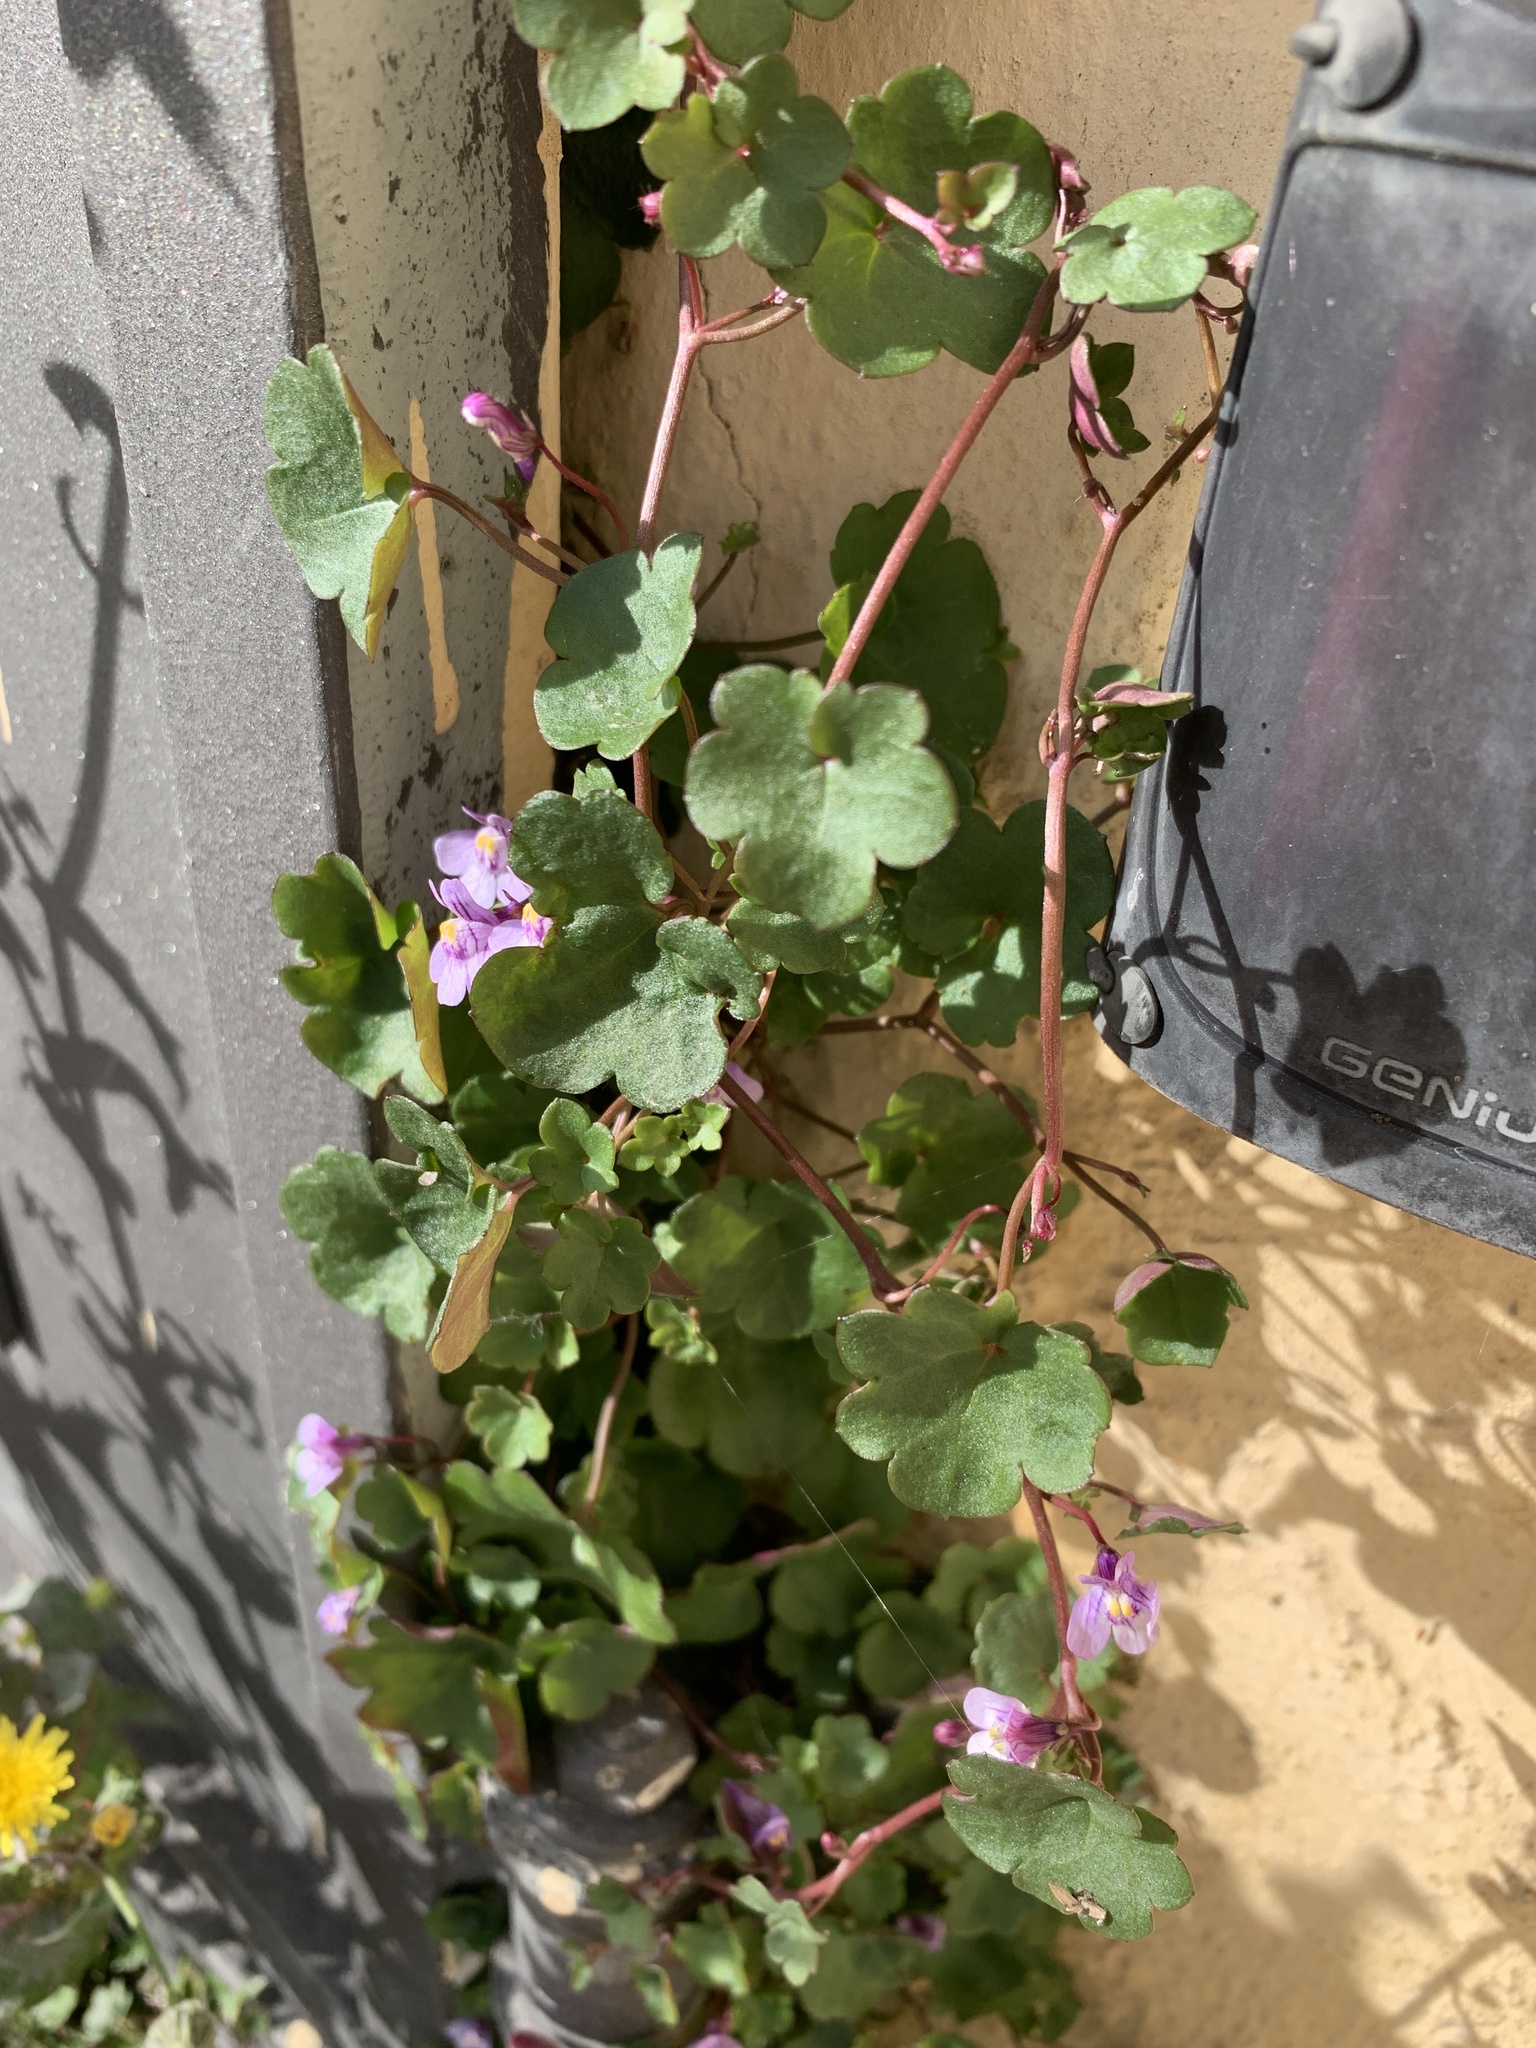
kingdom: Plantae
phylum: Tracheophyta
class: Magnoliopsida
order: Lamiales
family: Plantaginaceae
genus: Cymbalaria
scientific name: Cymbalaria muralis
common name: Ivy-leaved toadflax
